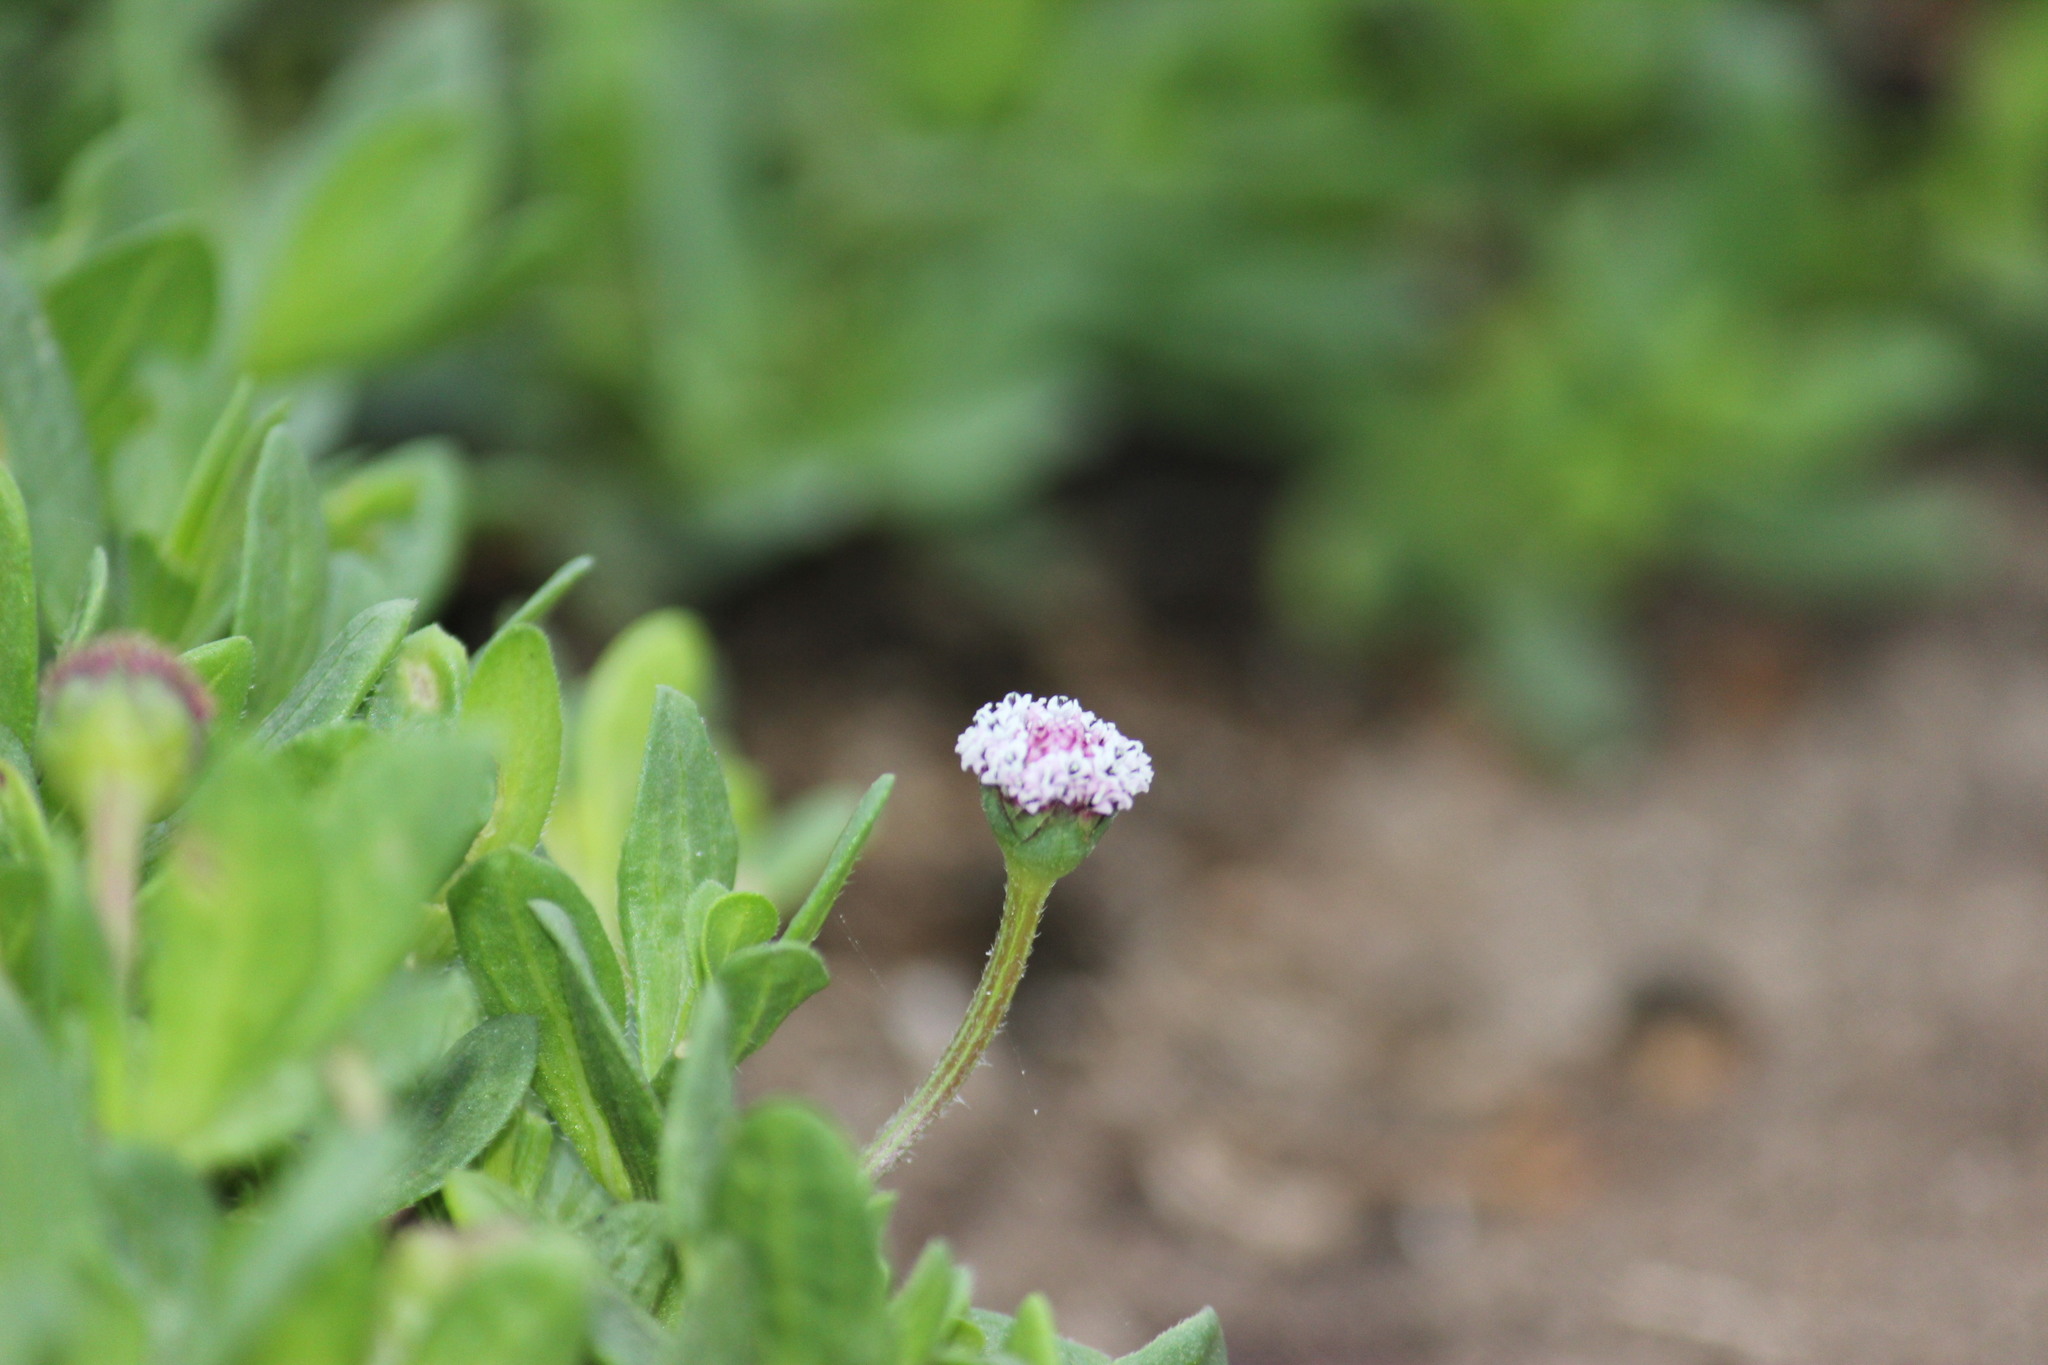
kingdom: Plantae
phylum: Tracheophyta
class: Magnoliopsida
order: Asterales
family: Asteraceae
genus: Spilanthes
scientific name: Spilanthes leiocarpa
